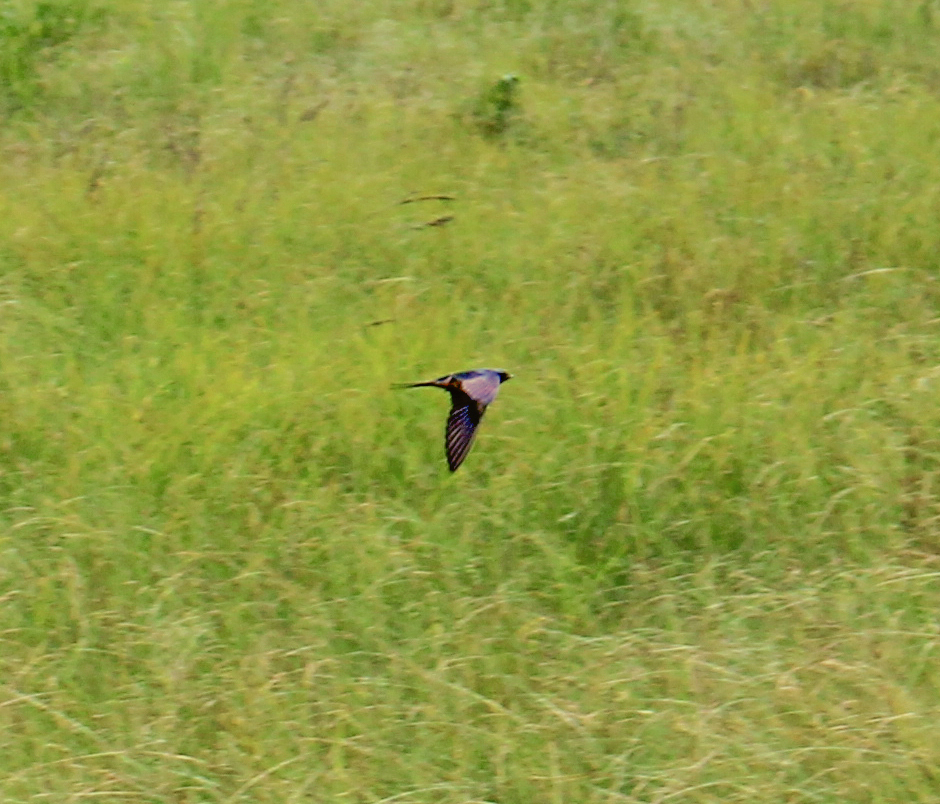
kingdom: Animalia
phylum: Chordata
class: Aves
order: Passeriformes
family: Hirundinidae
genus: Hirundo
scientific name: Hirundo rustica
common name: Barn swallow
